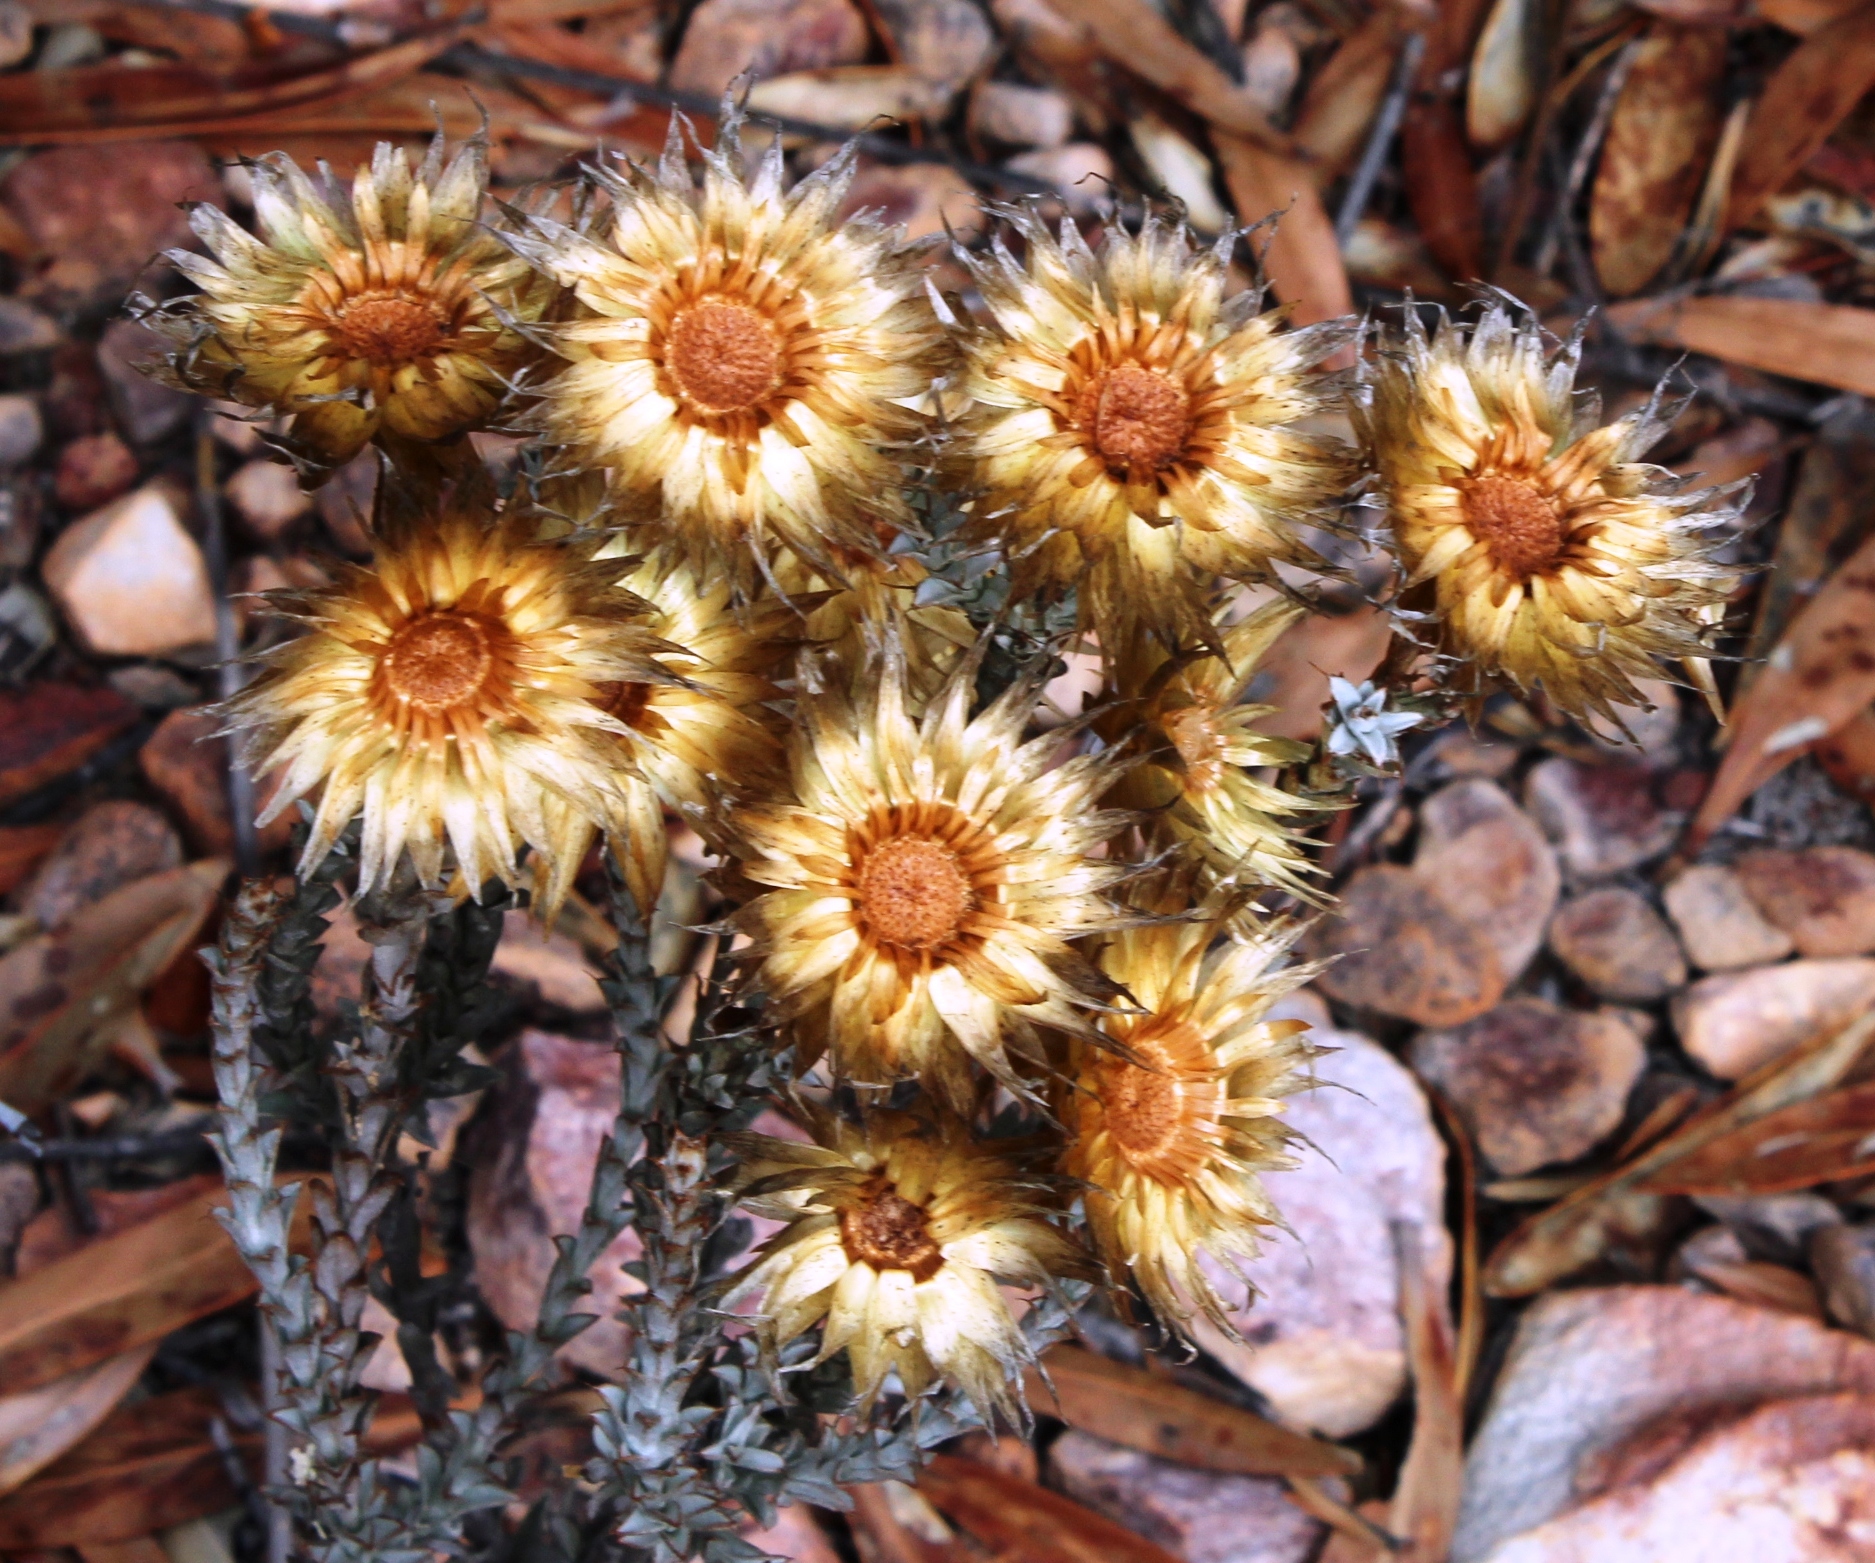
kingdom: Plantae
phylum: Tracheophyta
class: Magnoliopsida
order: Asterales
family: Asteraceae
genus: Syncarpha
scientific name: Syncarpha canescens
